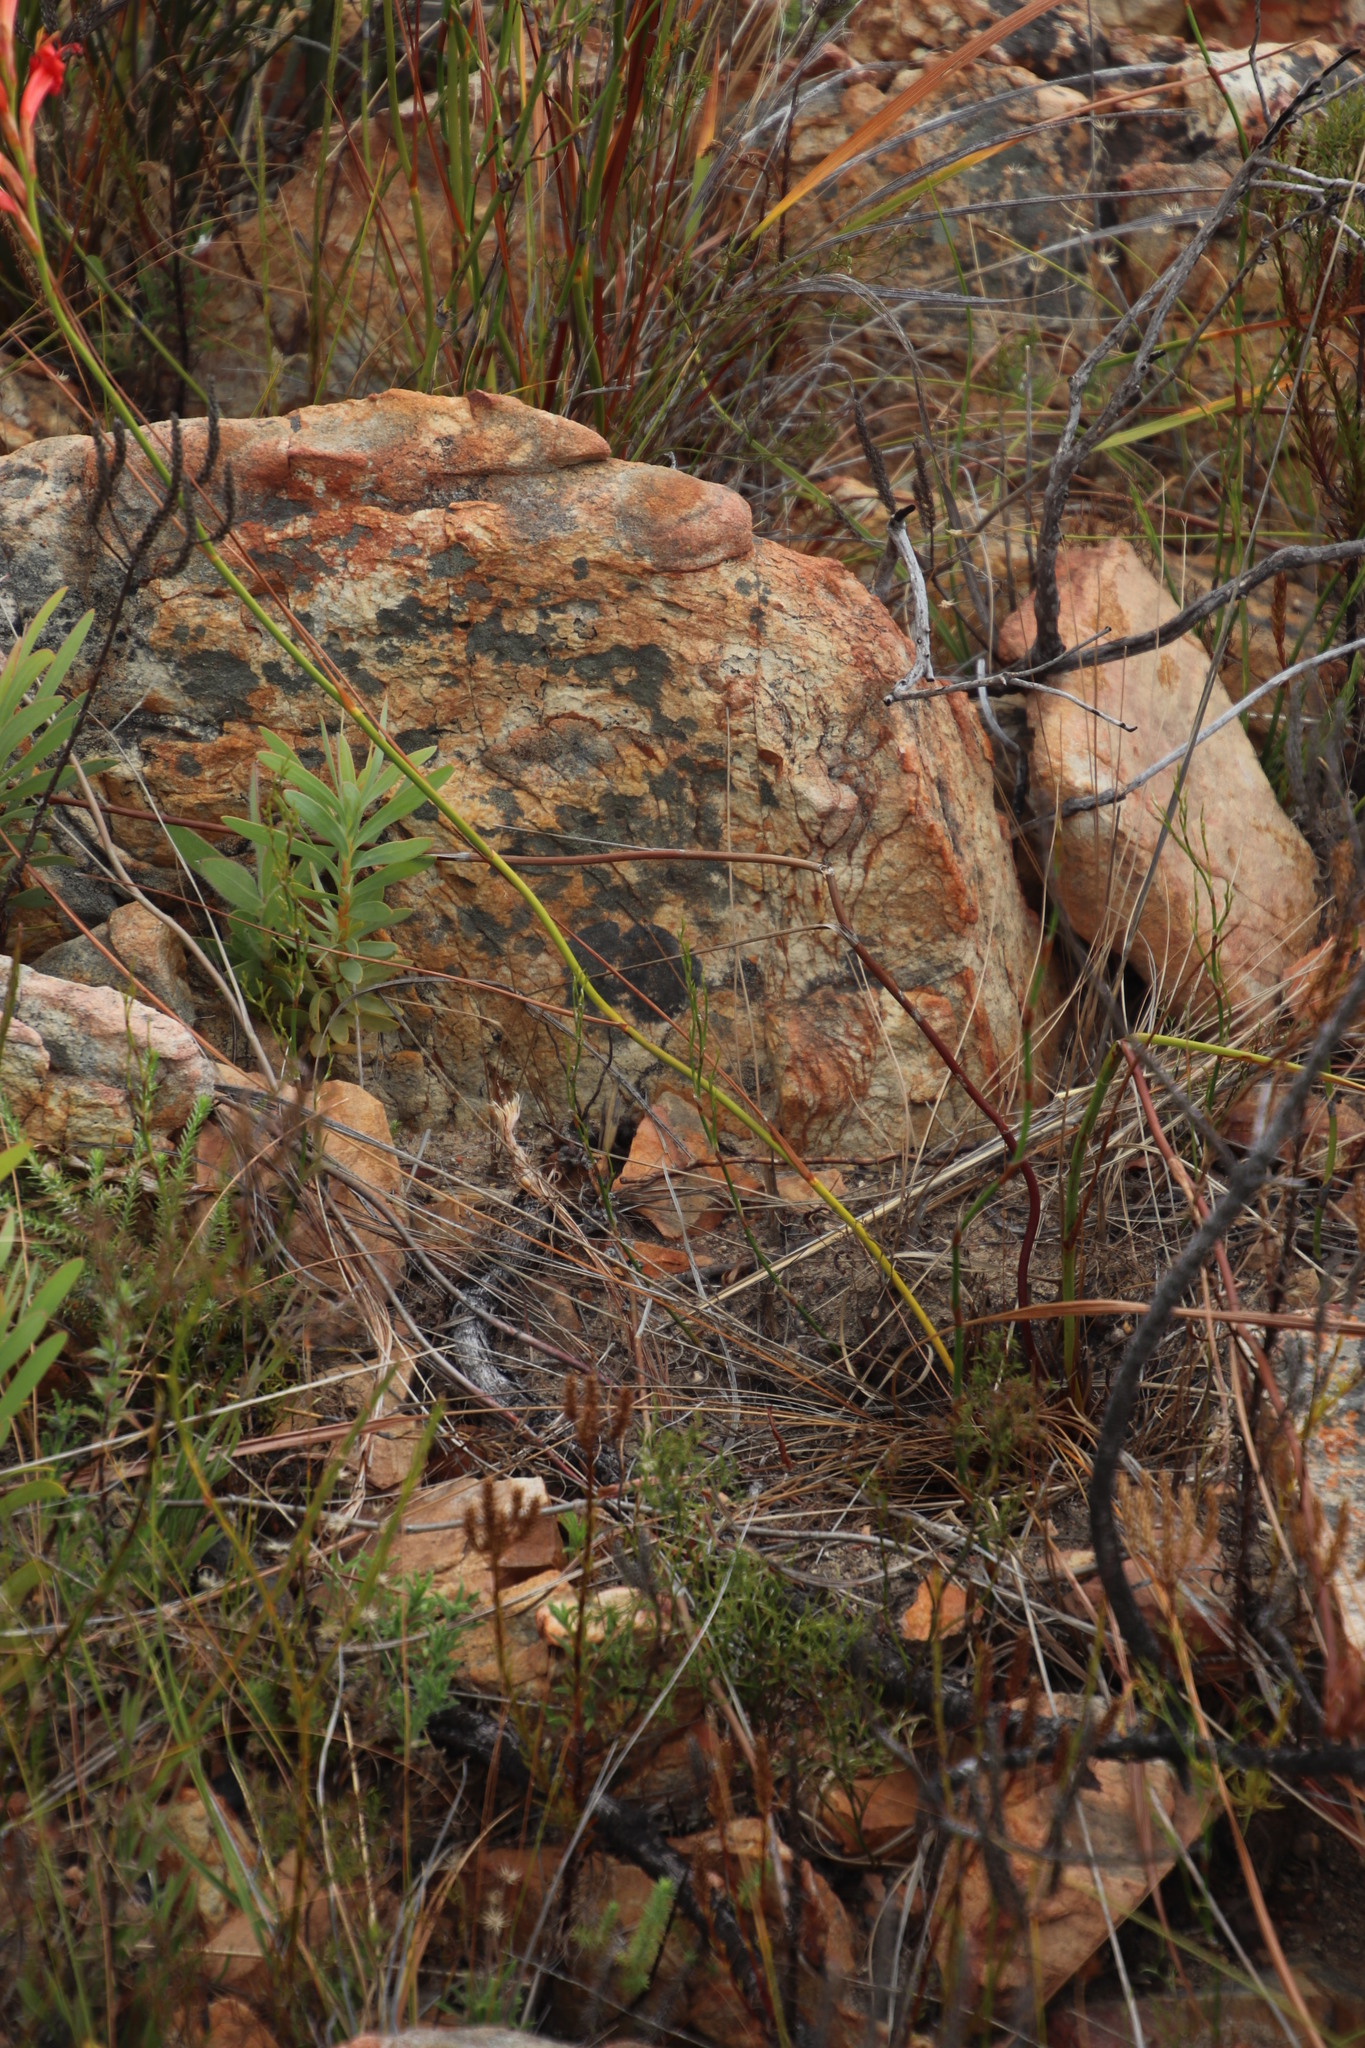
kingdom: Plantae
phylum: Tracheophyta
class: Liliopsida
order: Asparagales
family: Iridaceae
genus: Tritoniopsis
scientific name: Tritoniopsis triticea
